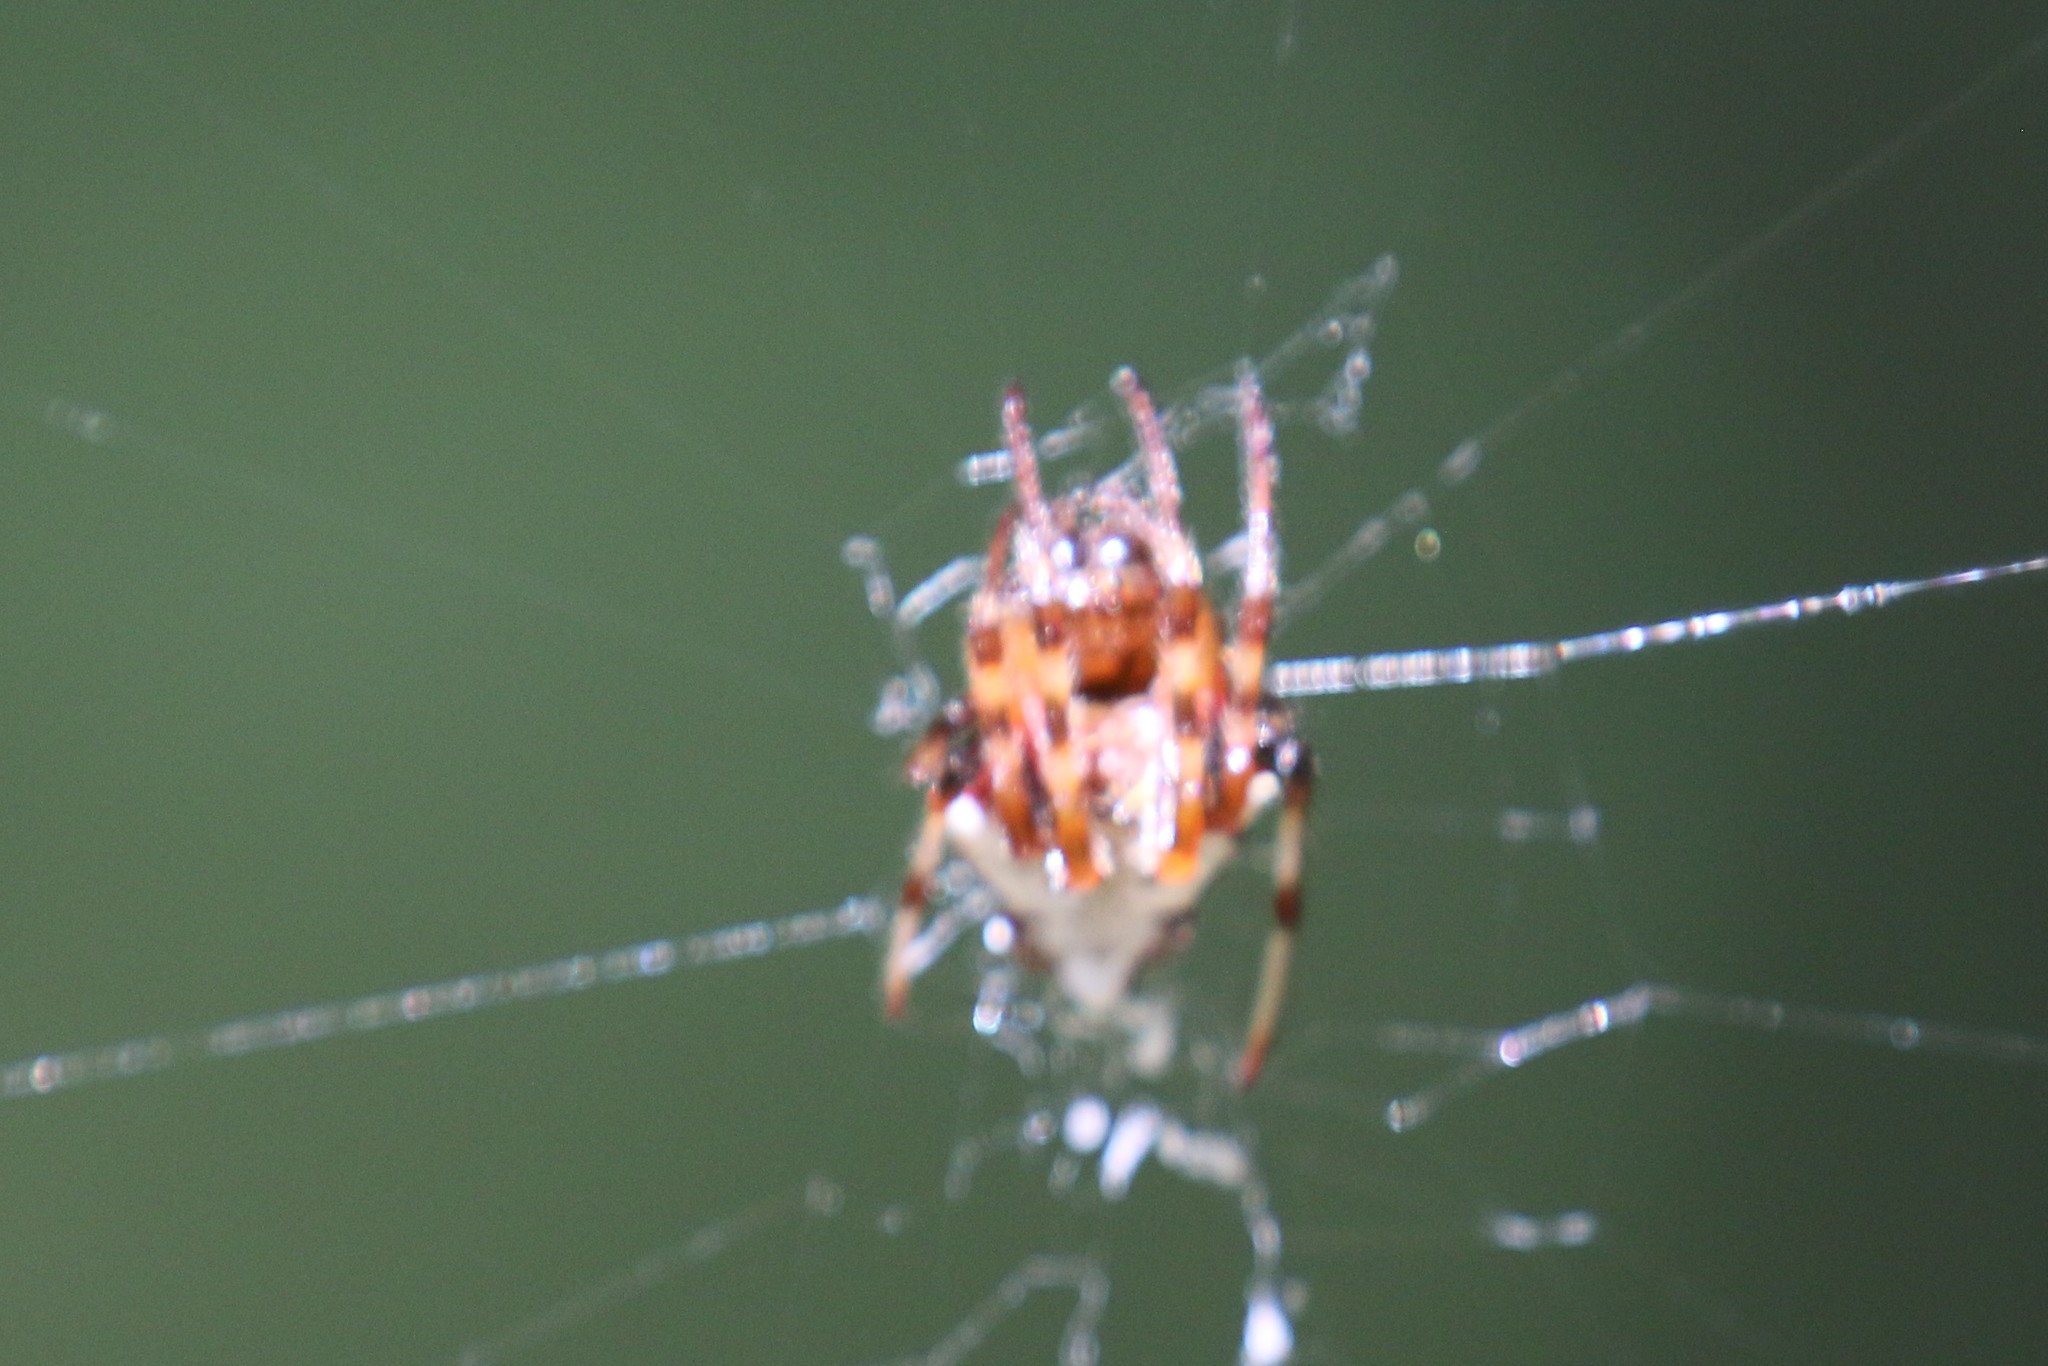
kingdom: Animalia
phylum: Arthropoda
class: Arachnida
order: Araneae
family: Araneidae
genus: Verrucosa
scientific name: Verrucosa arenata
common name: Orb weavers
